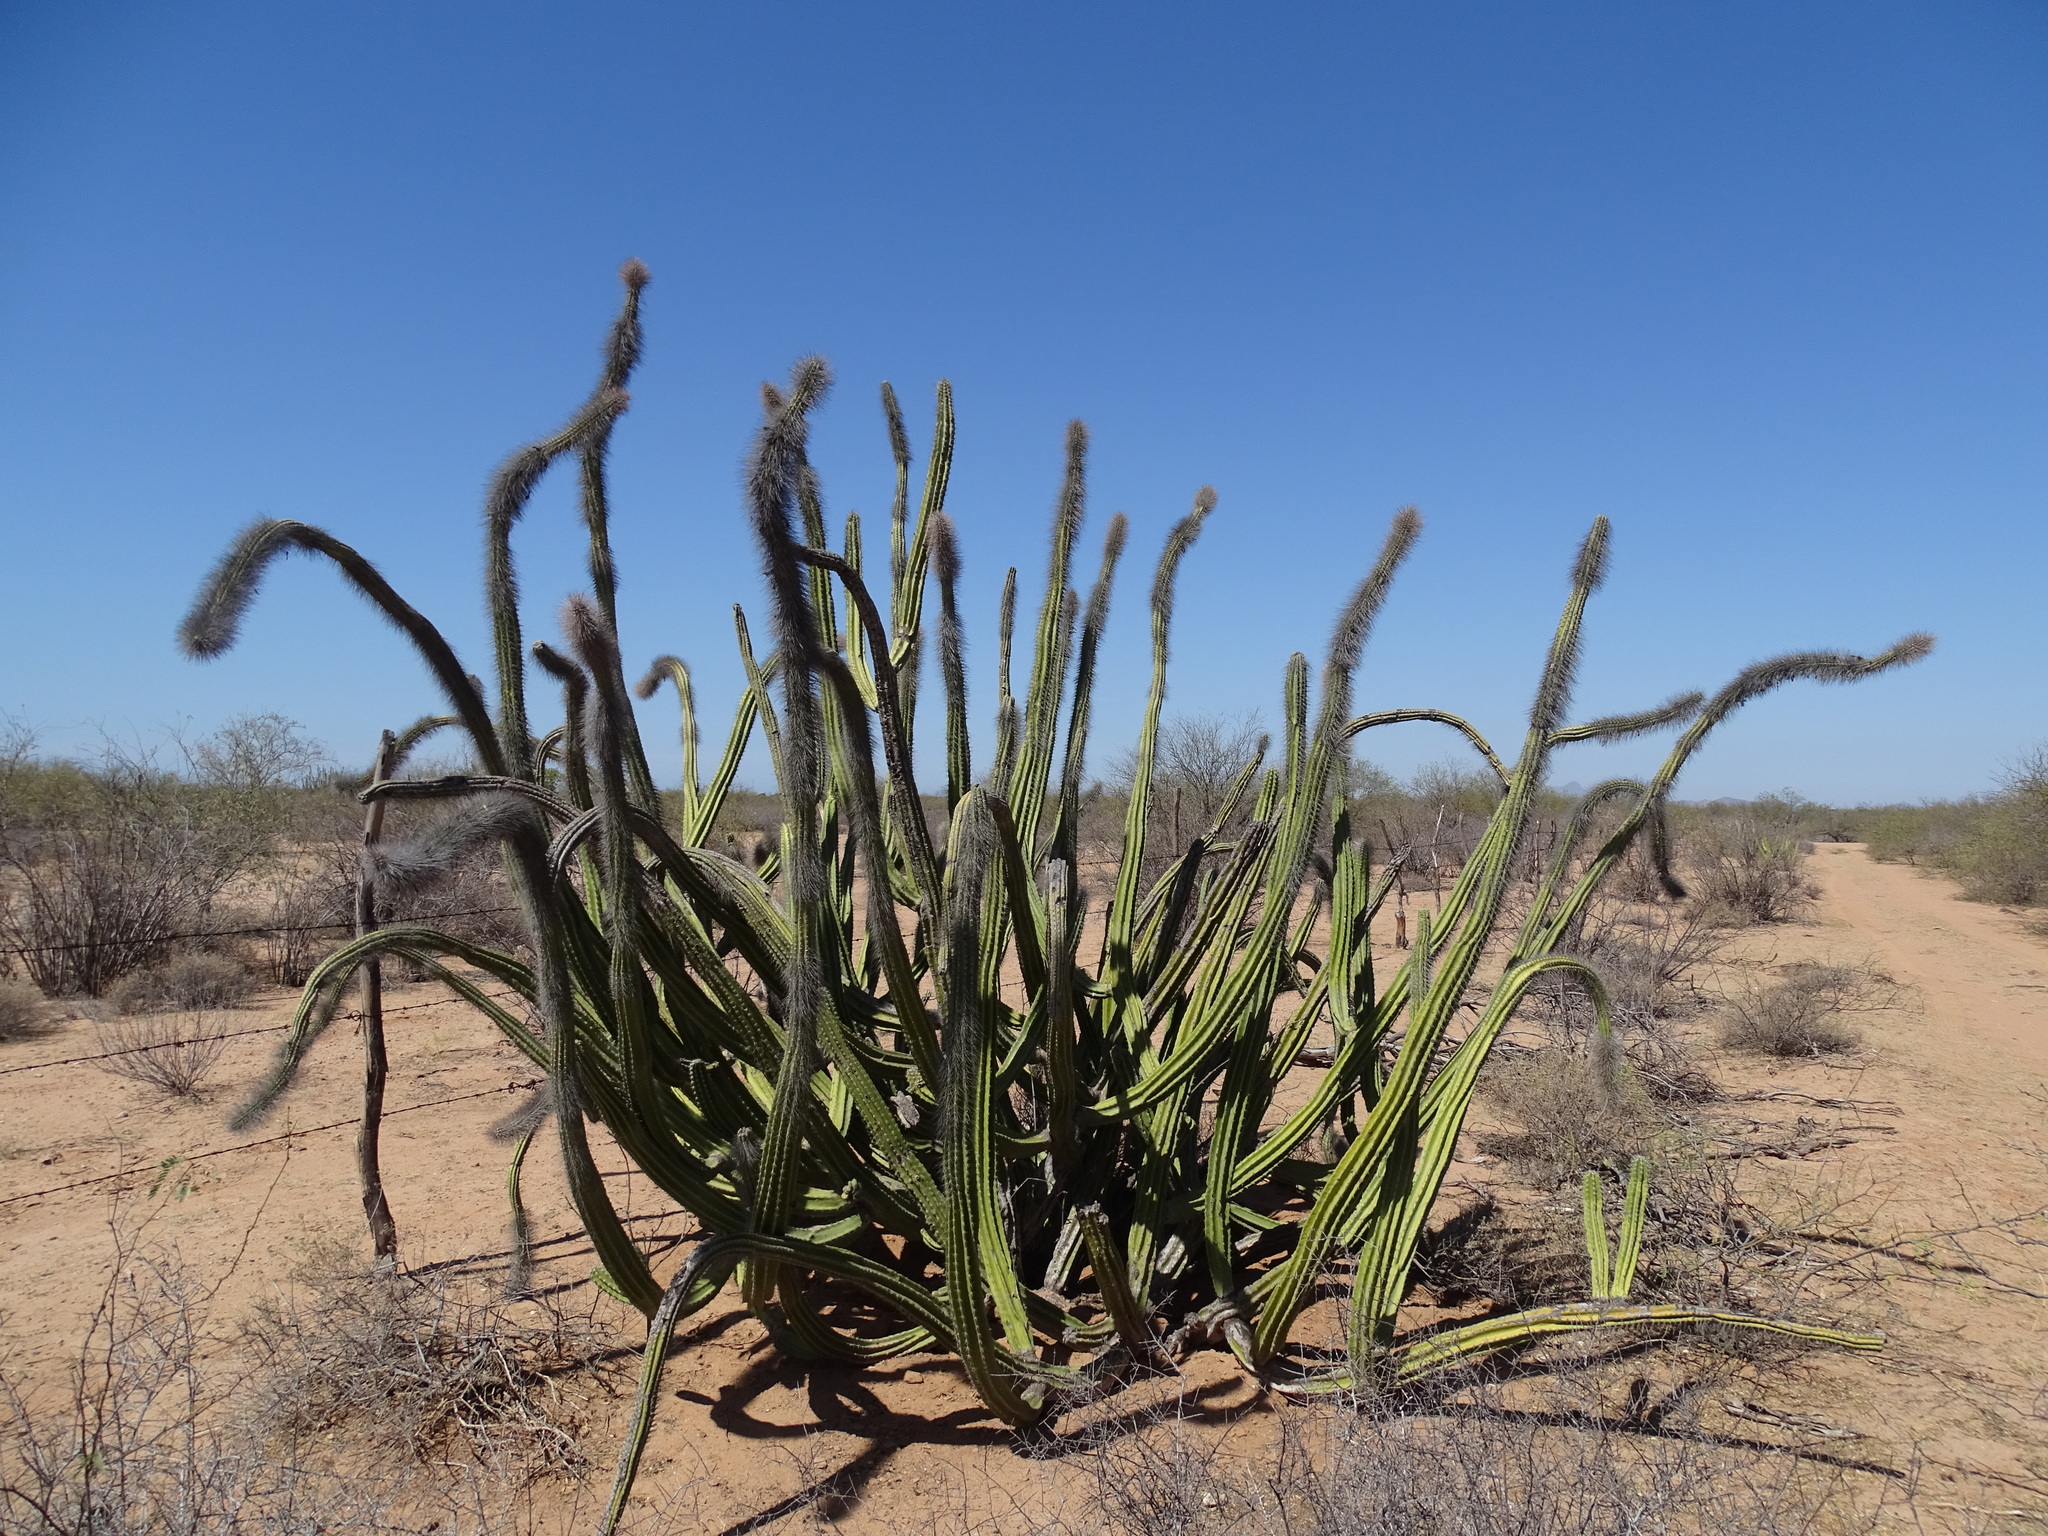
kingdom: Plantae
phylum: Tracheophyta
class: Magnoliopsida
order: Caryophyllales
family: Cactaceae
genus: Pachycereus
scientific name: Pachycereus schottii
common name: Senita cactus
